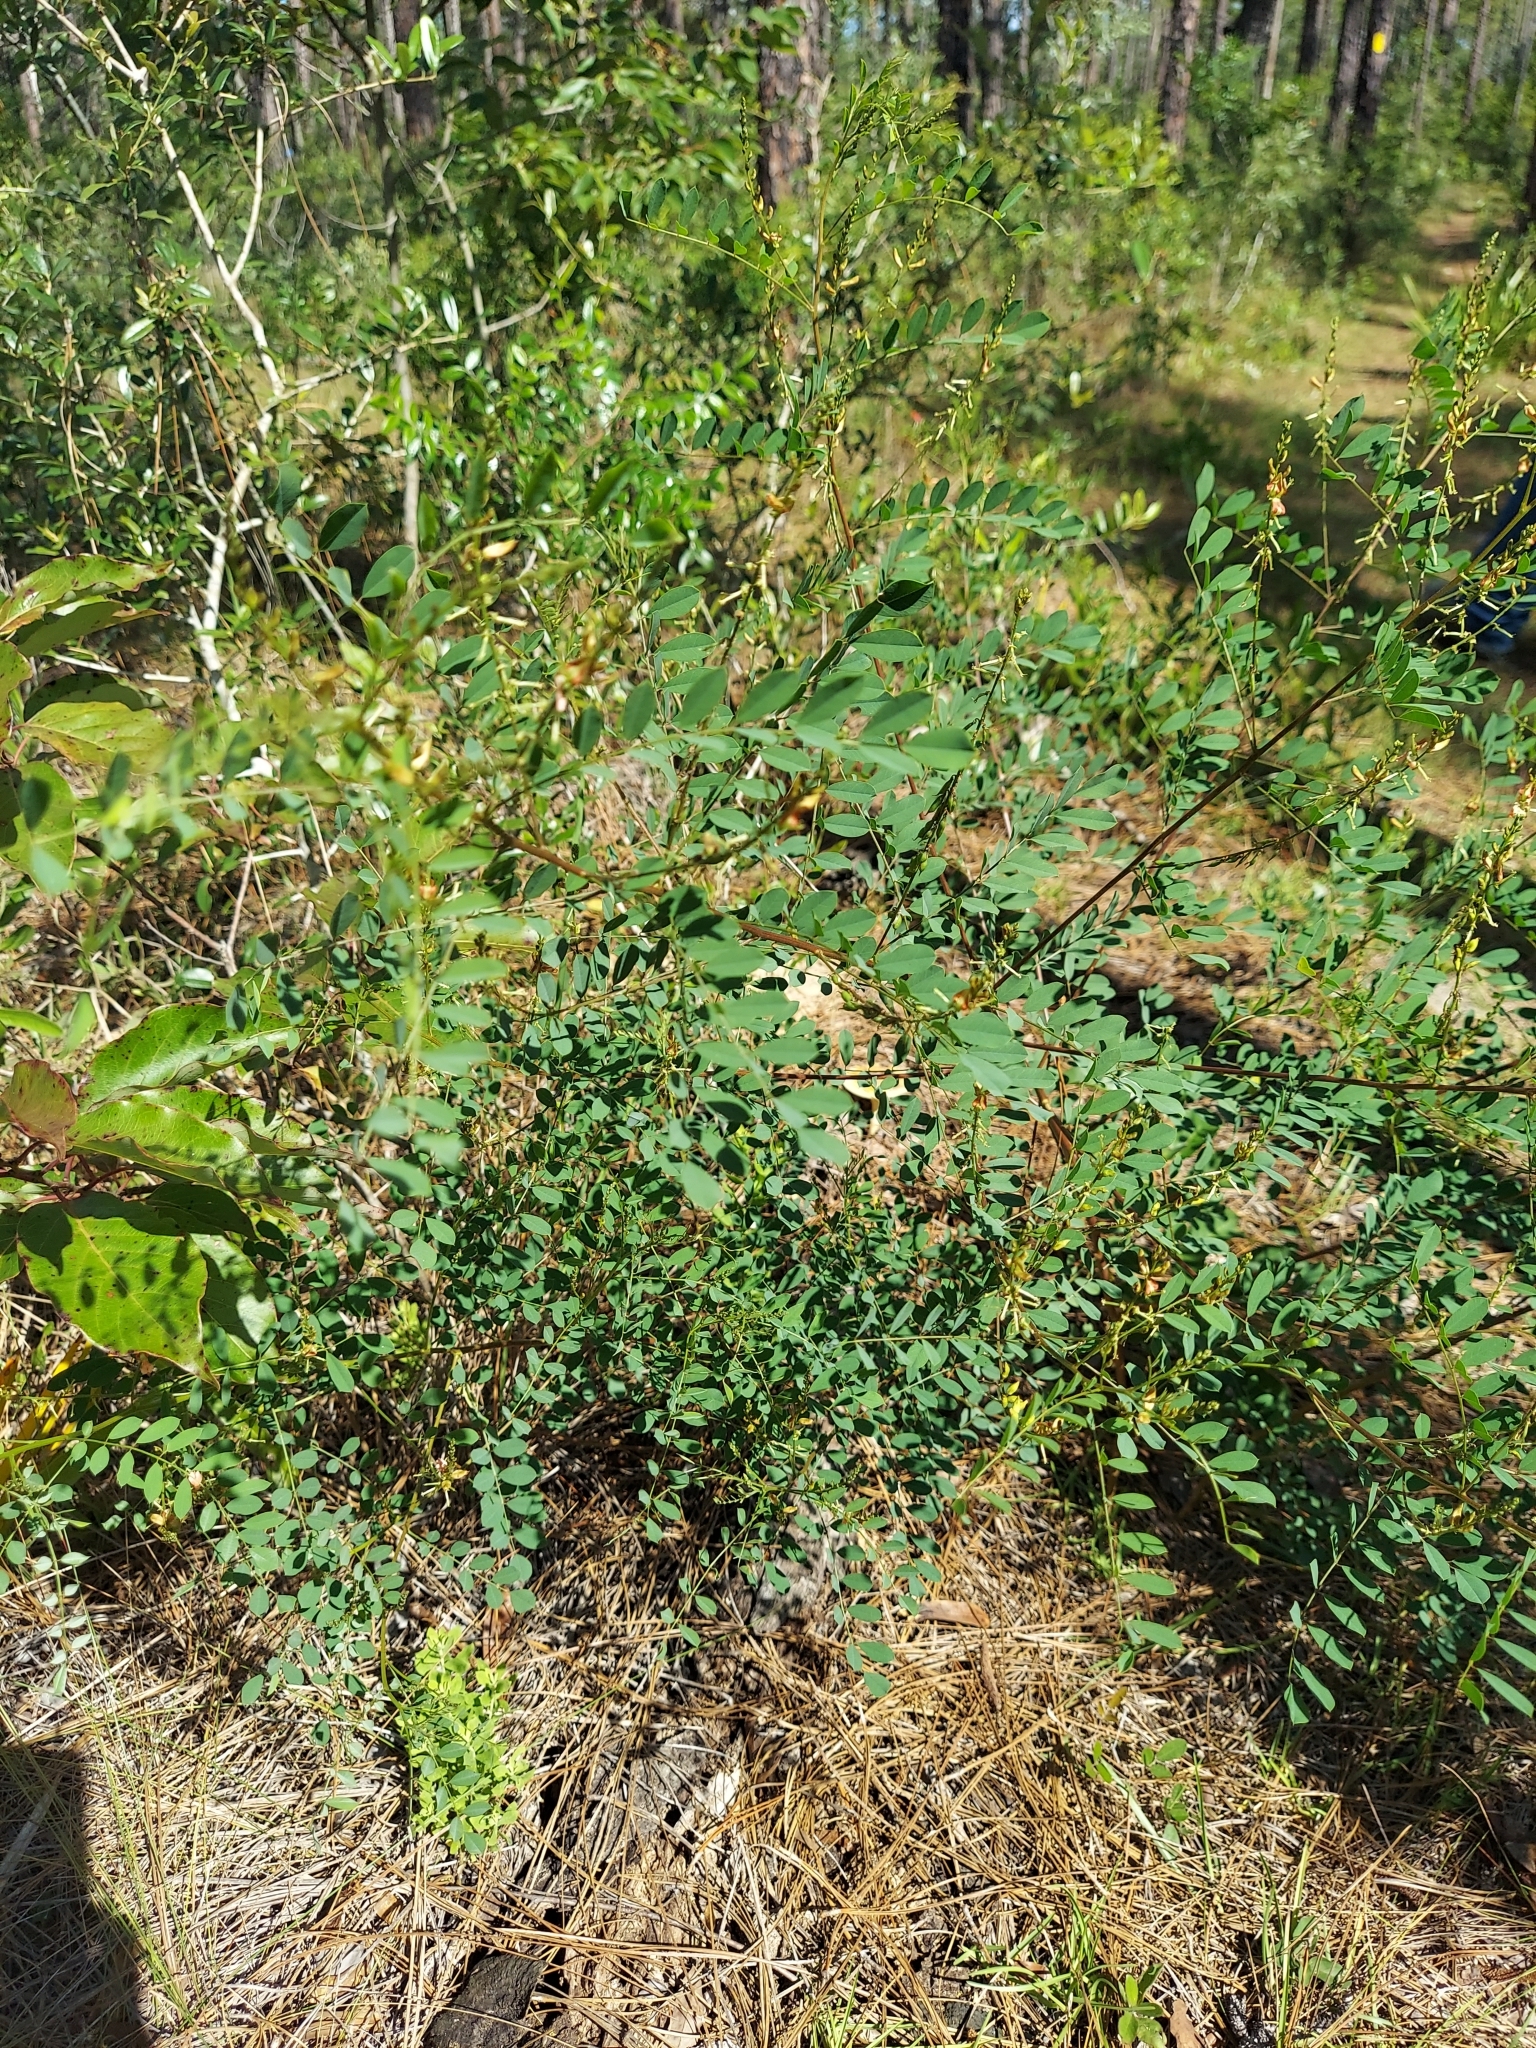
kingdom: Plantae
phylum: Tracheophyta
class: Magnoliopsida
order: Fabales
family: Fabaceae
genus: Indigofera
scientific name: Indigofera caroliniana
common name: Wild indigo
